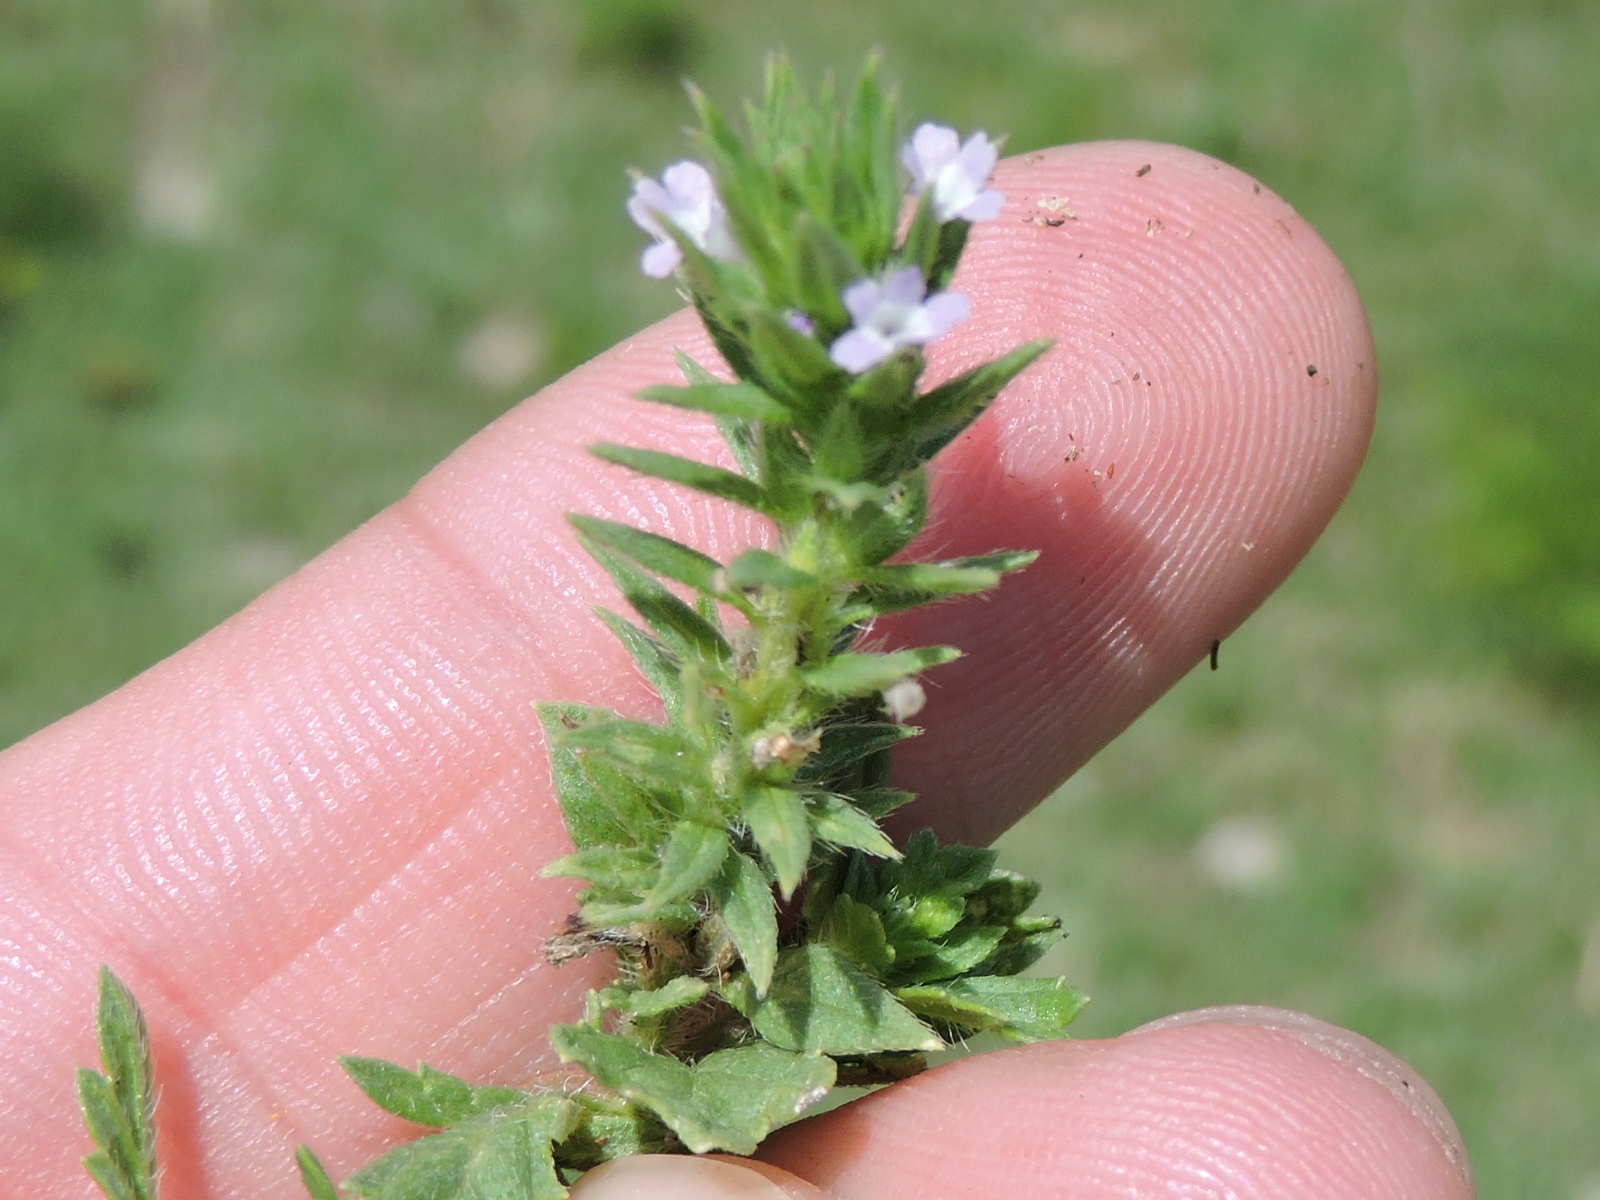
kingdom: Plantae
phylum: Tracheophyta
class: Magnoliopsida
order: Lamiales
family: Verbenaceae
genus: Verbena
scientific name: Verbena bracteata
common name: Bracted vervain
